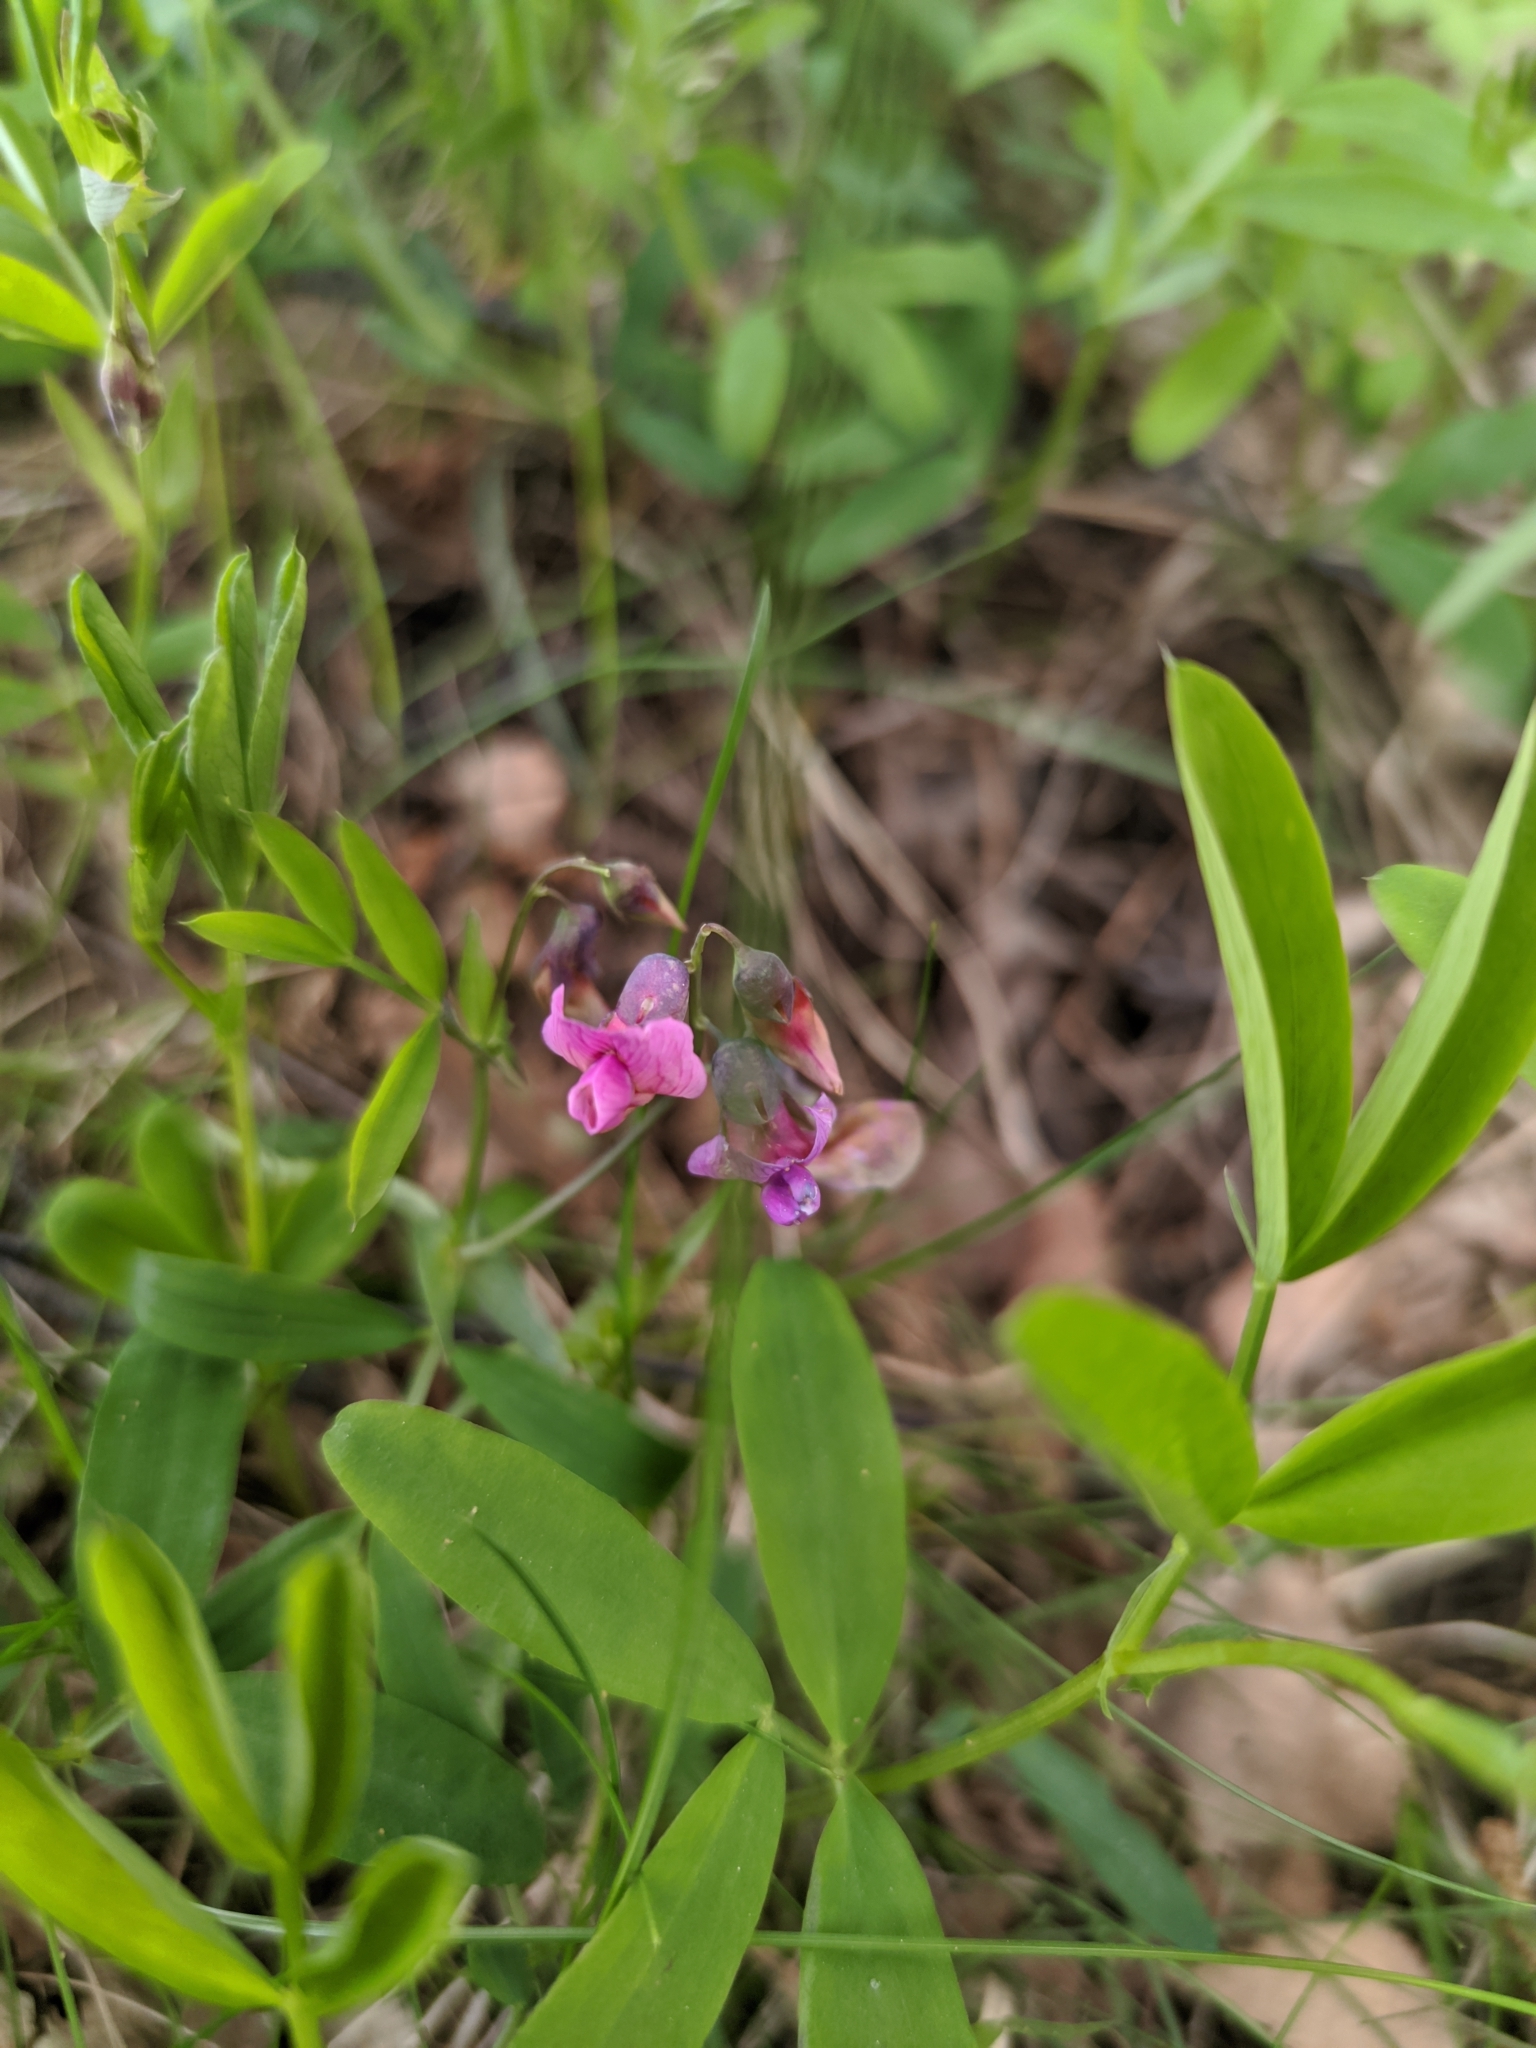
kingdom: Plantae
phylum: Tracheophyta
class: Magnoliopsida
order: Fabales
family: Fabaceae
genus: Lathyrus
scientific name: Lathyrus linifolius
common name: Bitter-vetch
